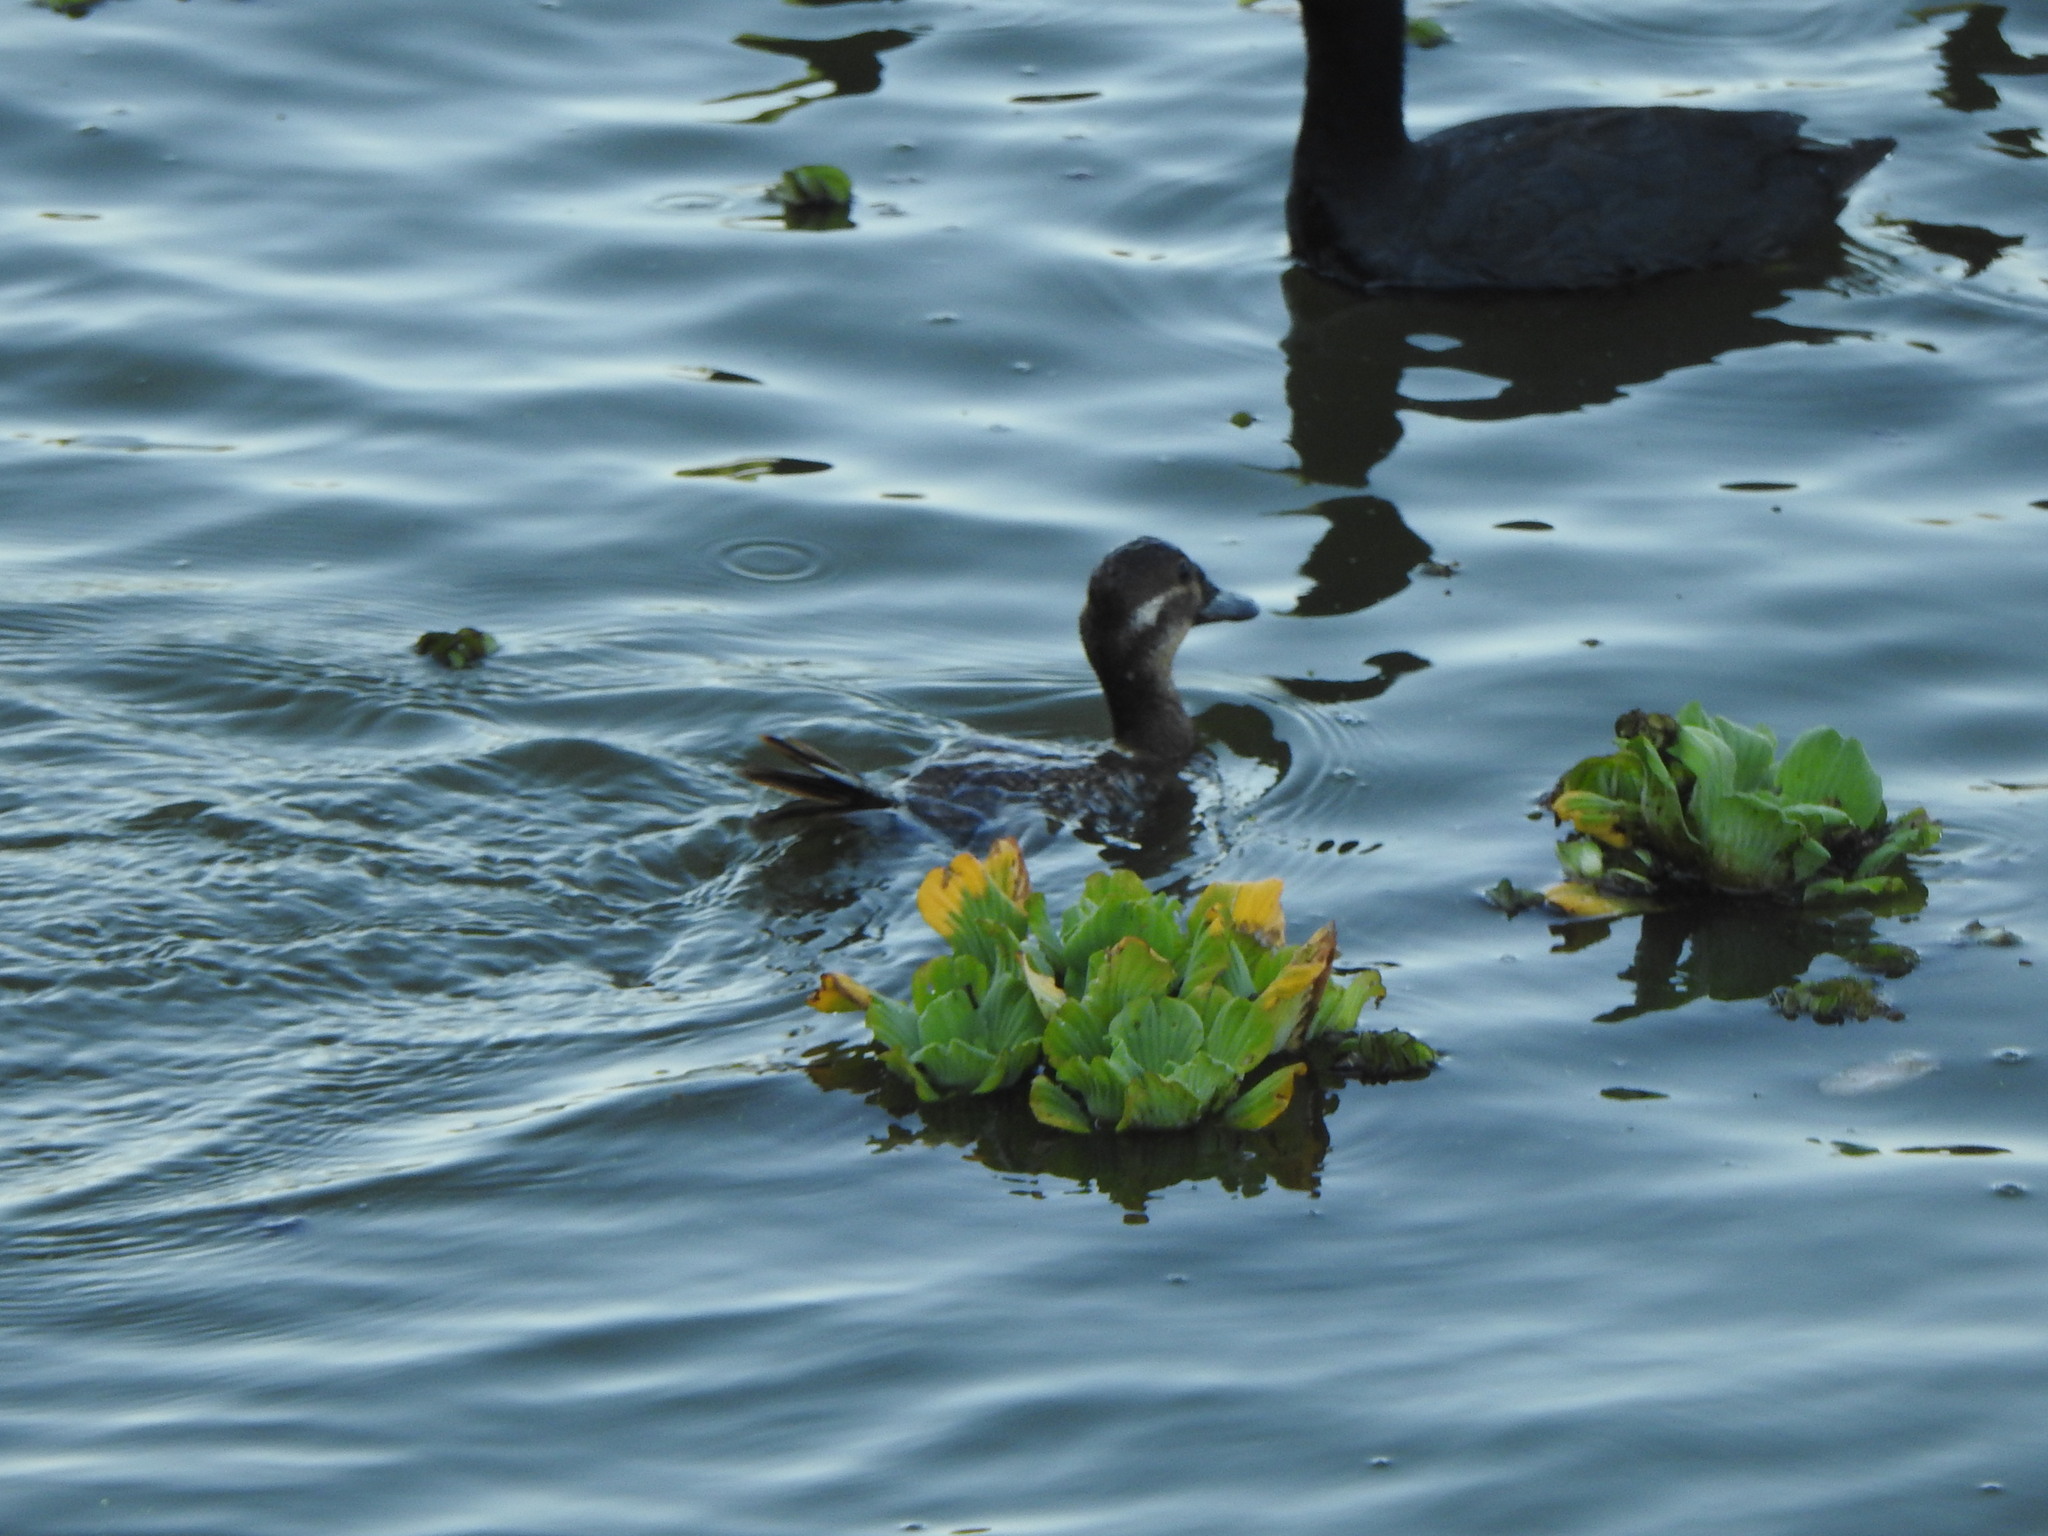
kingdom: Animalia
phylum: Chordata
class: Aves
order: Anseriformes
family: Anatidae
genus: Oxyura
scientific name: Oxyura vittata
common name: Lake duck
